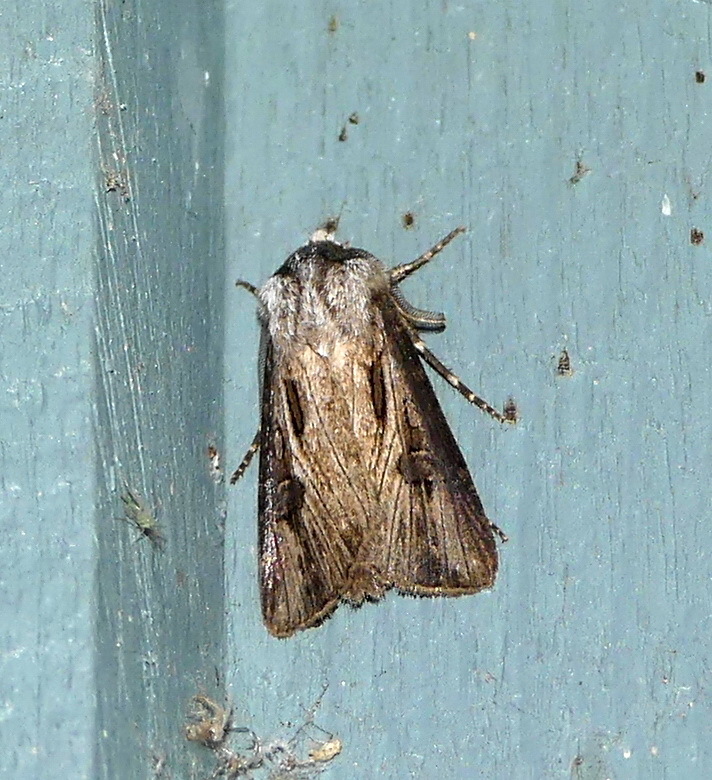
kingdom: Animalia
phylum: Arthropoda
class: Insecta
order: Lepidoptera
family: Noctuidae
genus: Agrotis
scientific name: Agrotis venerabilis
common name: Venerable dart
